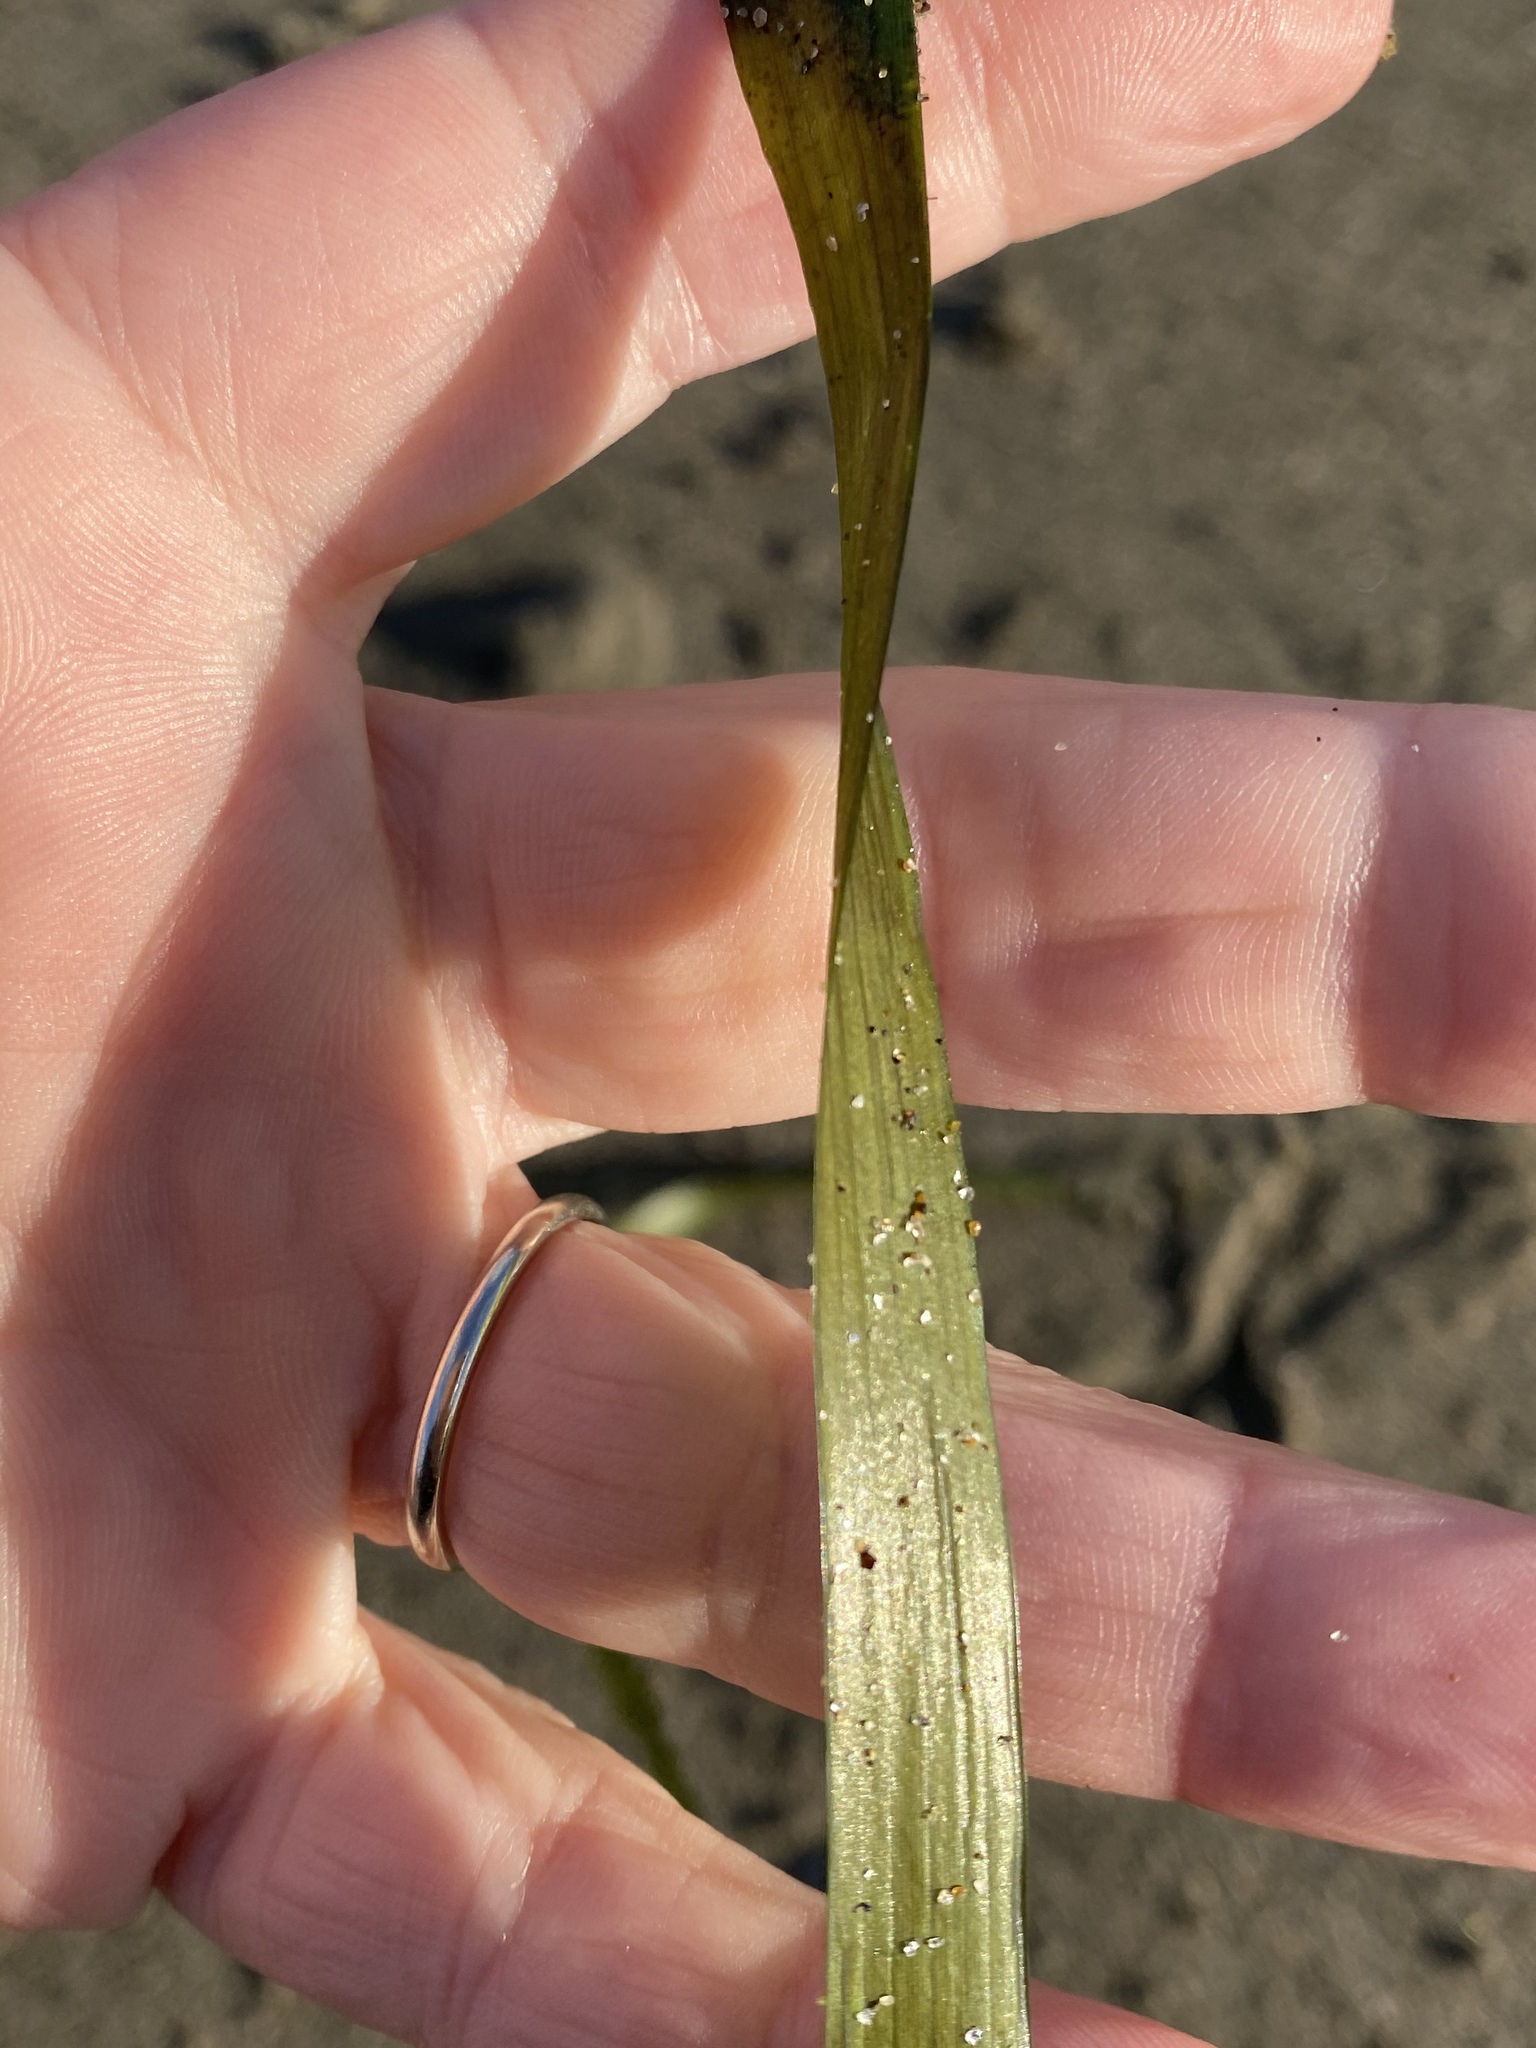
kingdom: Plantae
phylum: Tracheophyta
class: Liliopsida
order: Alismatales
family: Zosteraceae
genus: Zostera
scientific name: Zostera marina
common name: Eelgrass
